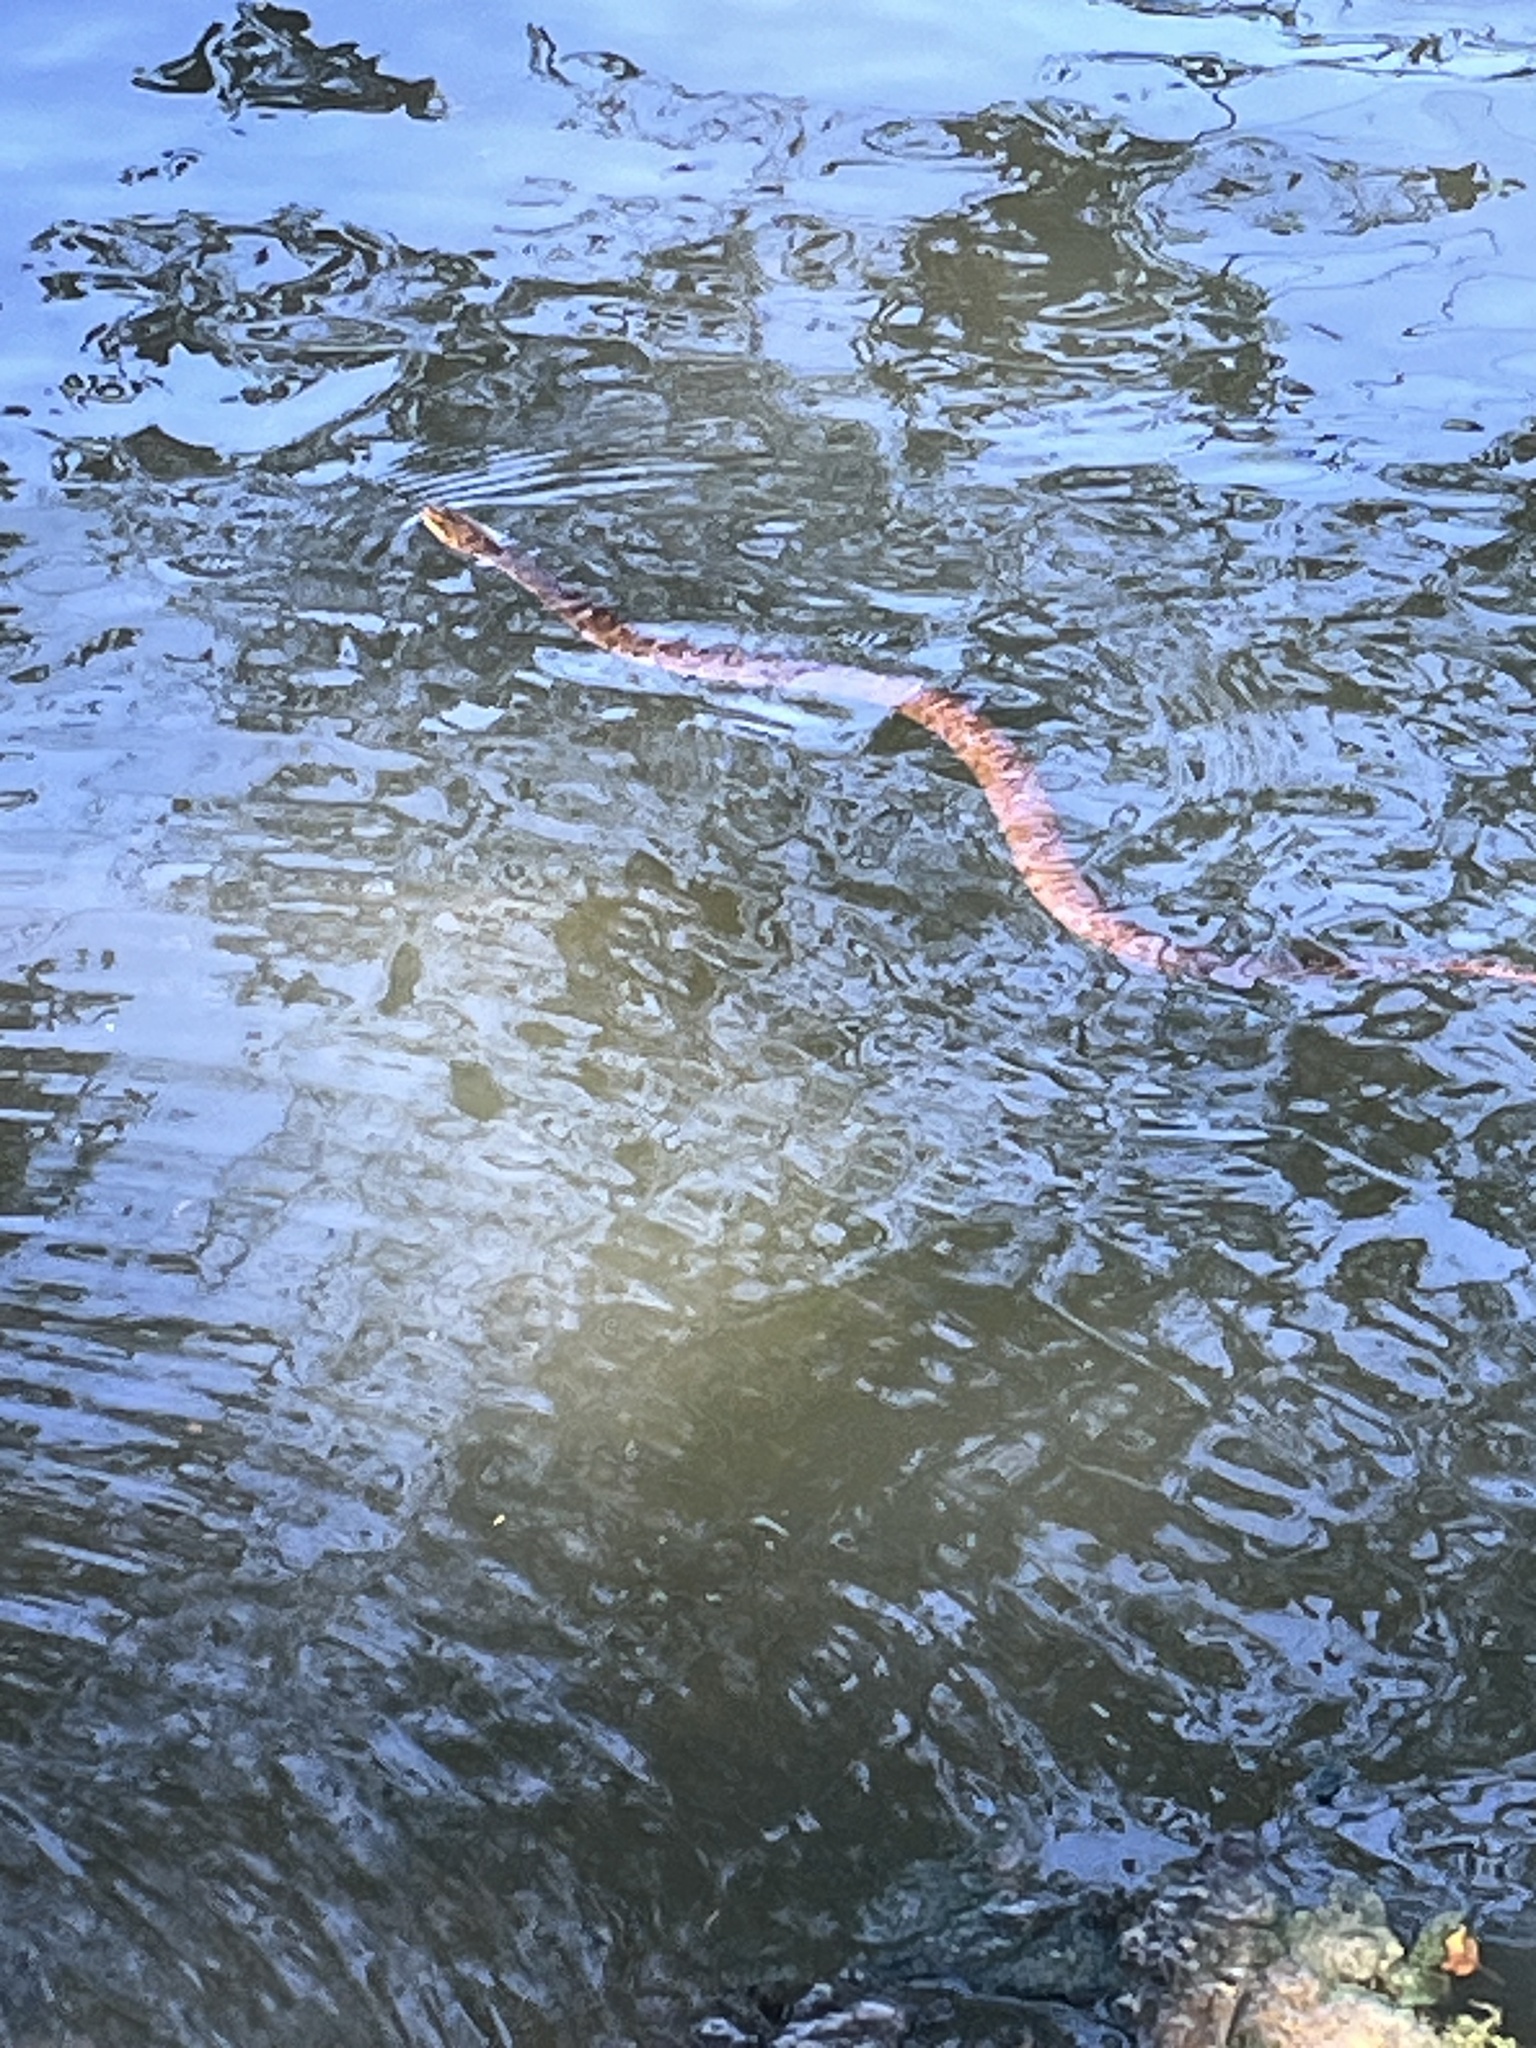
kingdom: Animalia
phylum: Chordata
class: Squamata
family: Colubridae
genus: Nerodia
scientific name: Nerodia erythrogaster
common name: Plainbelly water snake
